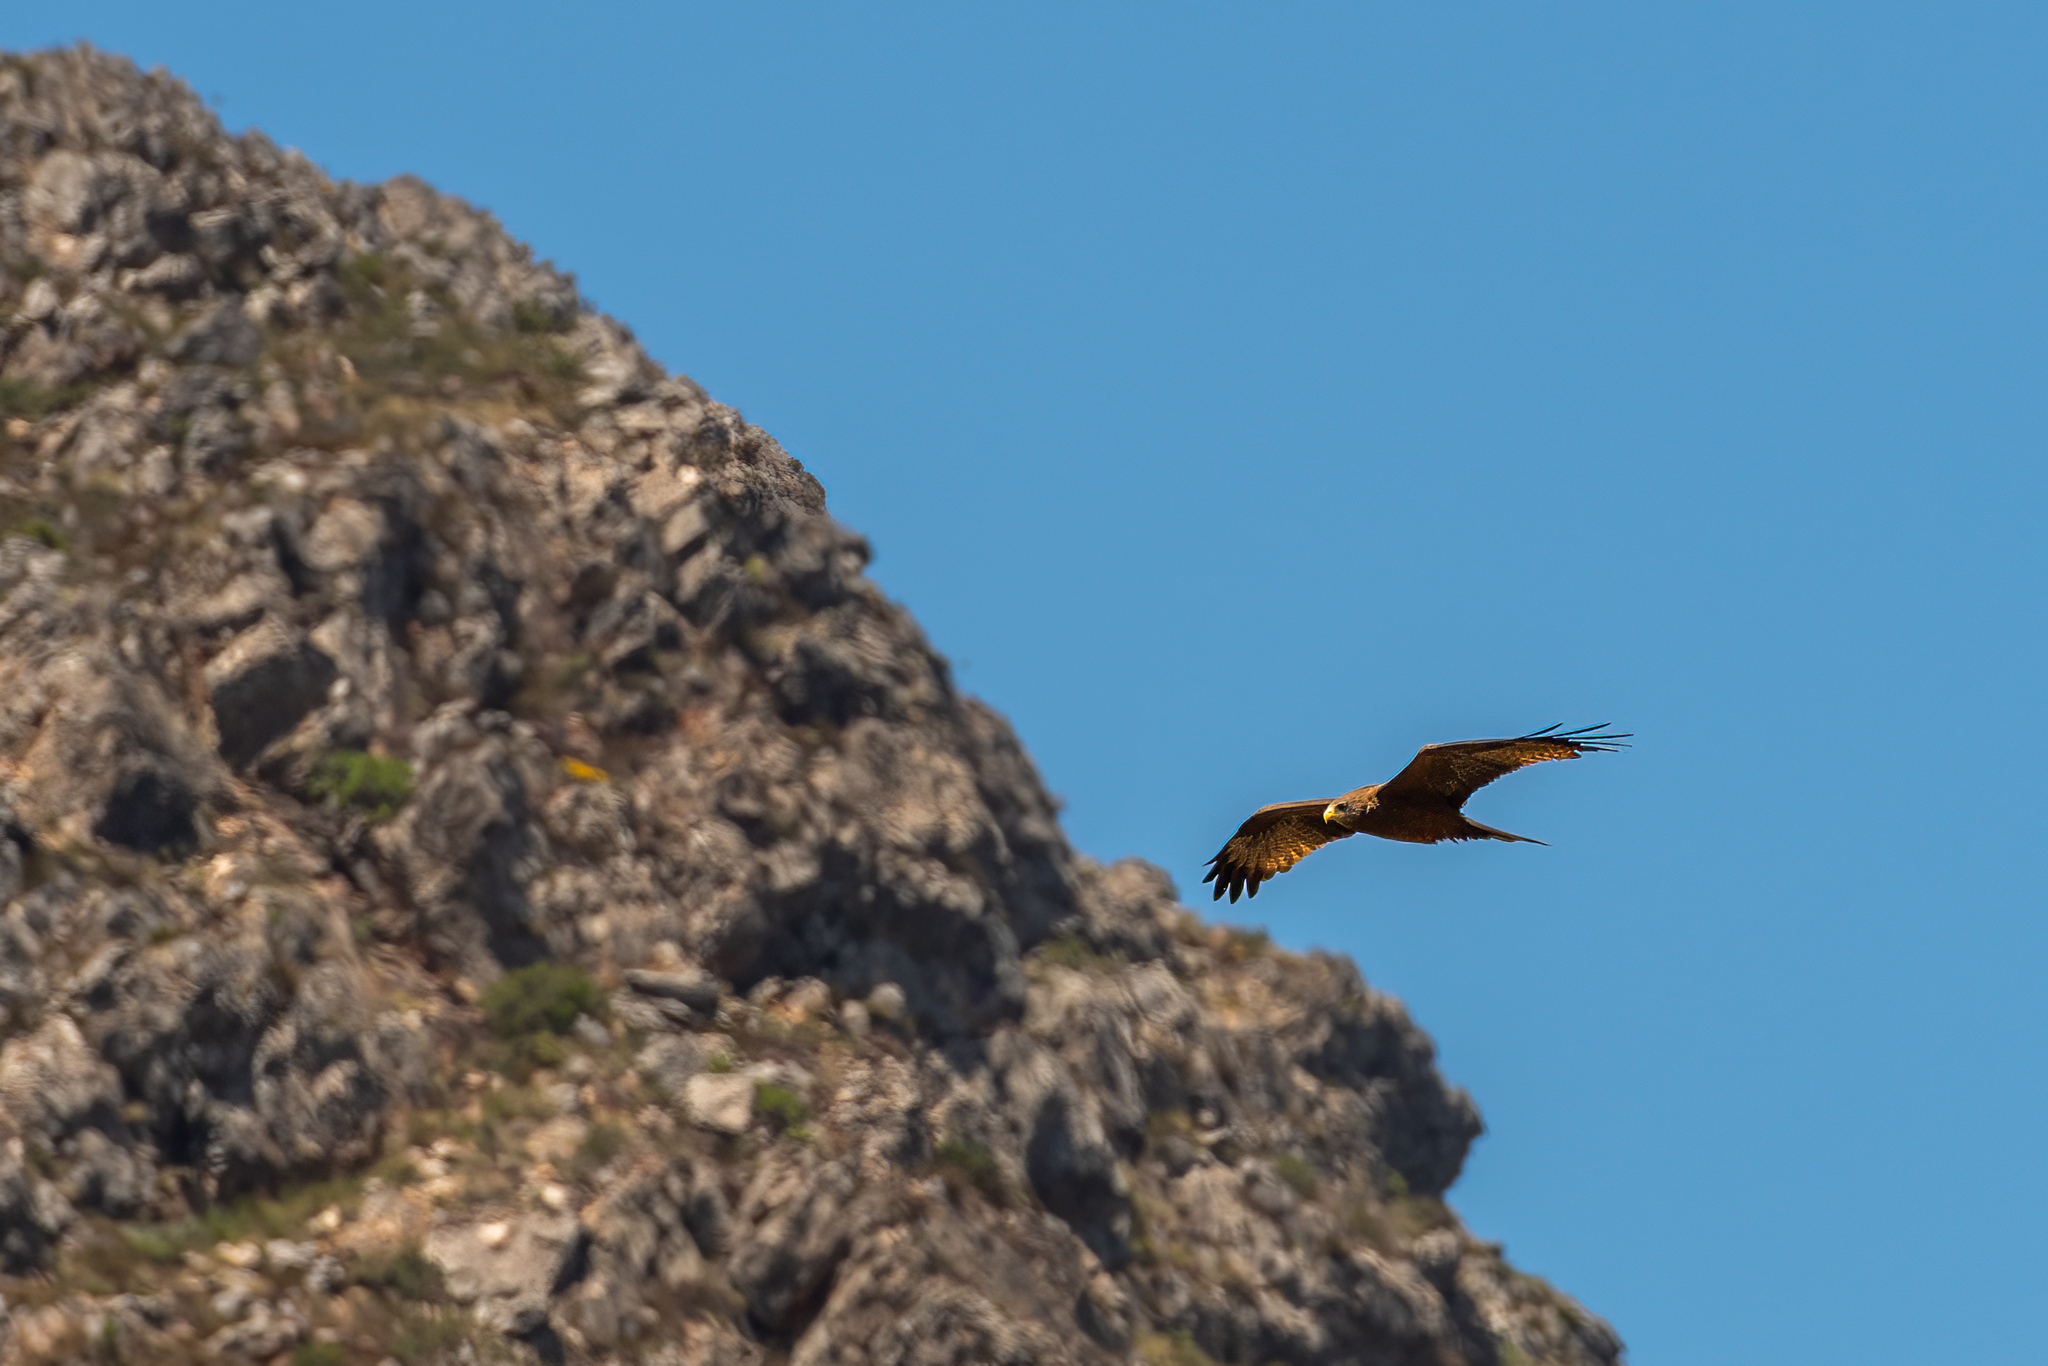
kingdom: Animalia
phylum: Chordata
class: Aves
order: Accipitriformes
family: Accipitridae
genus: Milvus
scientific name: Milvus migrans
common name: Black kite
